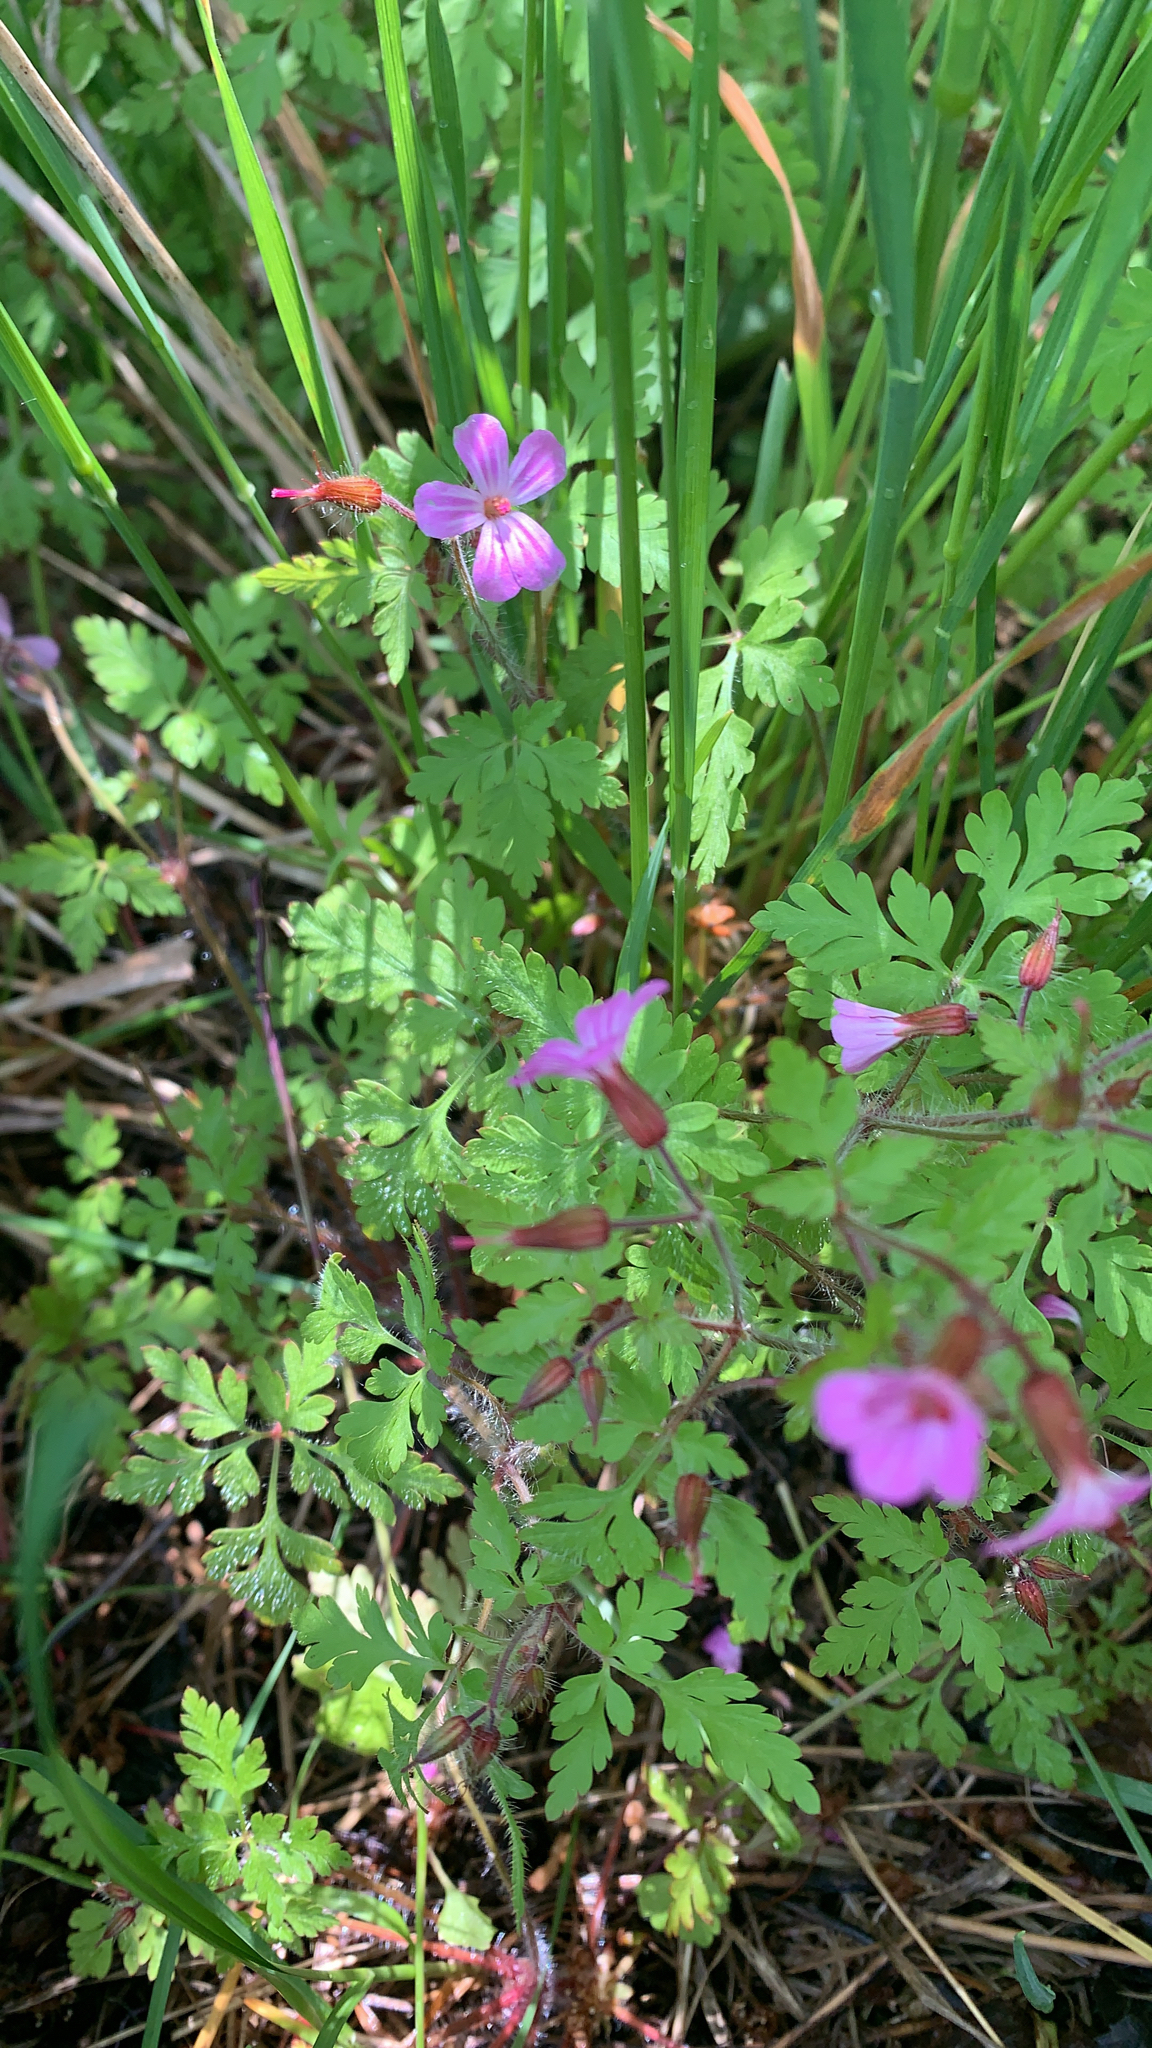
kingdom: Plantae
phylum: Tracheophyta
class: Magnoliopsida
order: Geraniales
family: Geraniaceae
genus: Geranium
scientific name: Geranium robertianum
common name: Herb-robert
